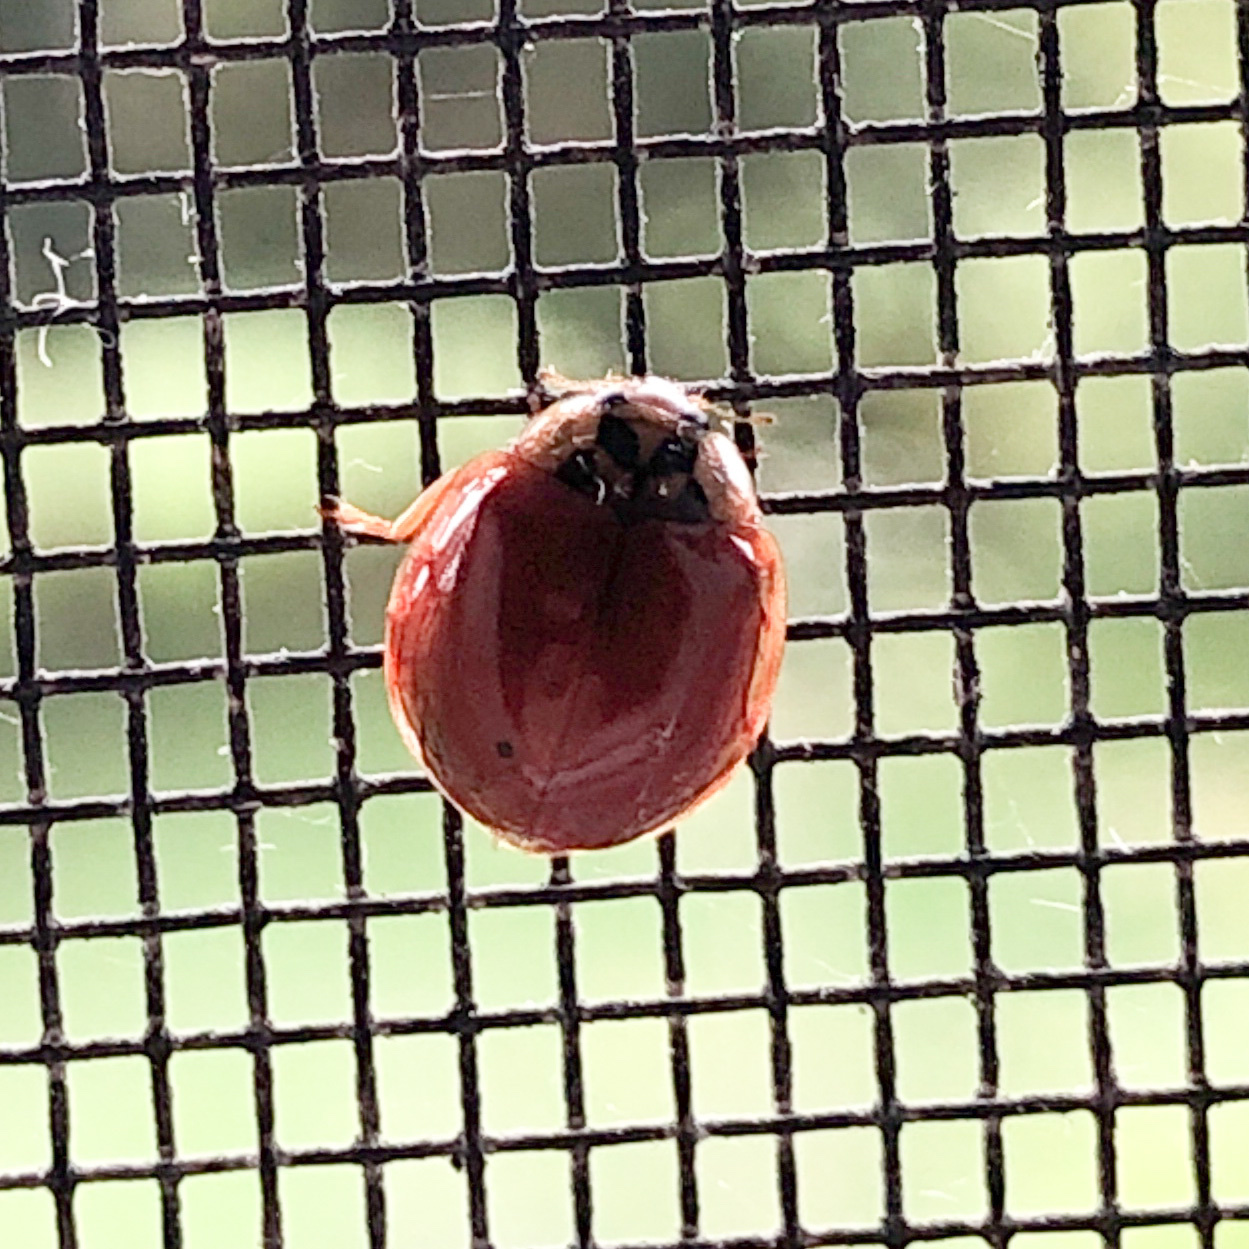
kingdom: Animalia
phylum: Arthropoda
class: Insecta
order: Coleoptera
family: Coccinellidae
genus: Harmonia
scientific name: Harmonia axyridis
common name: Harlequin ladybird
